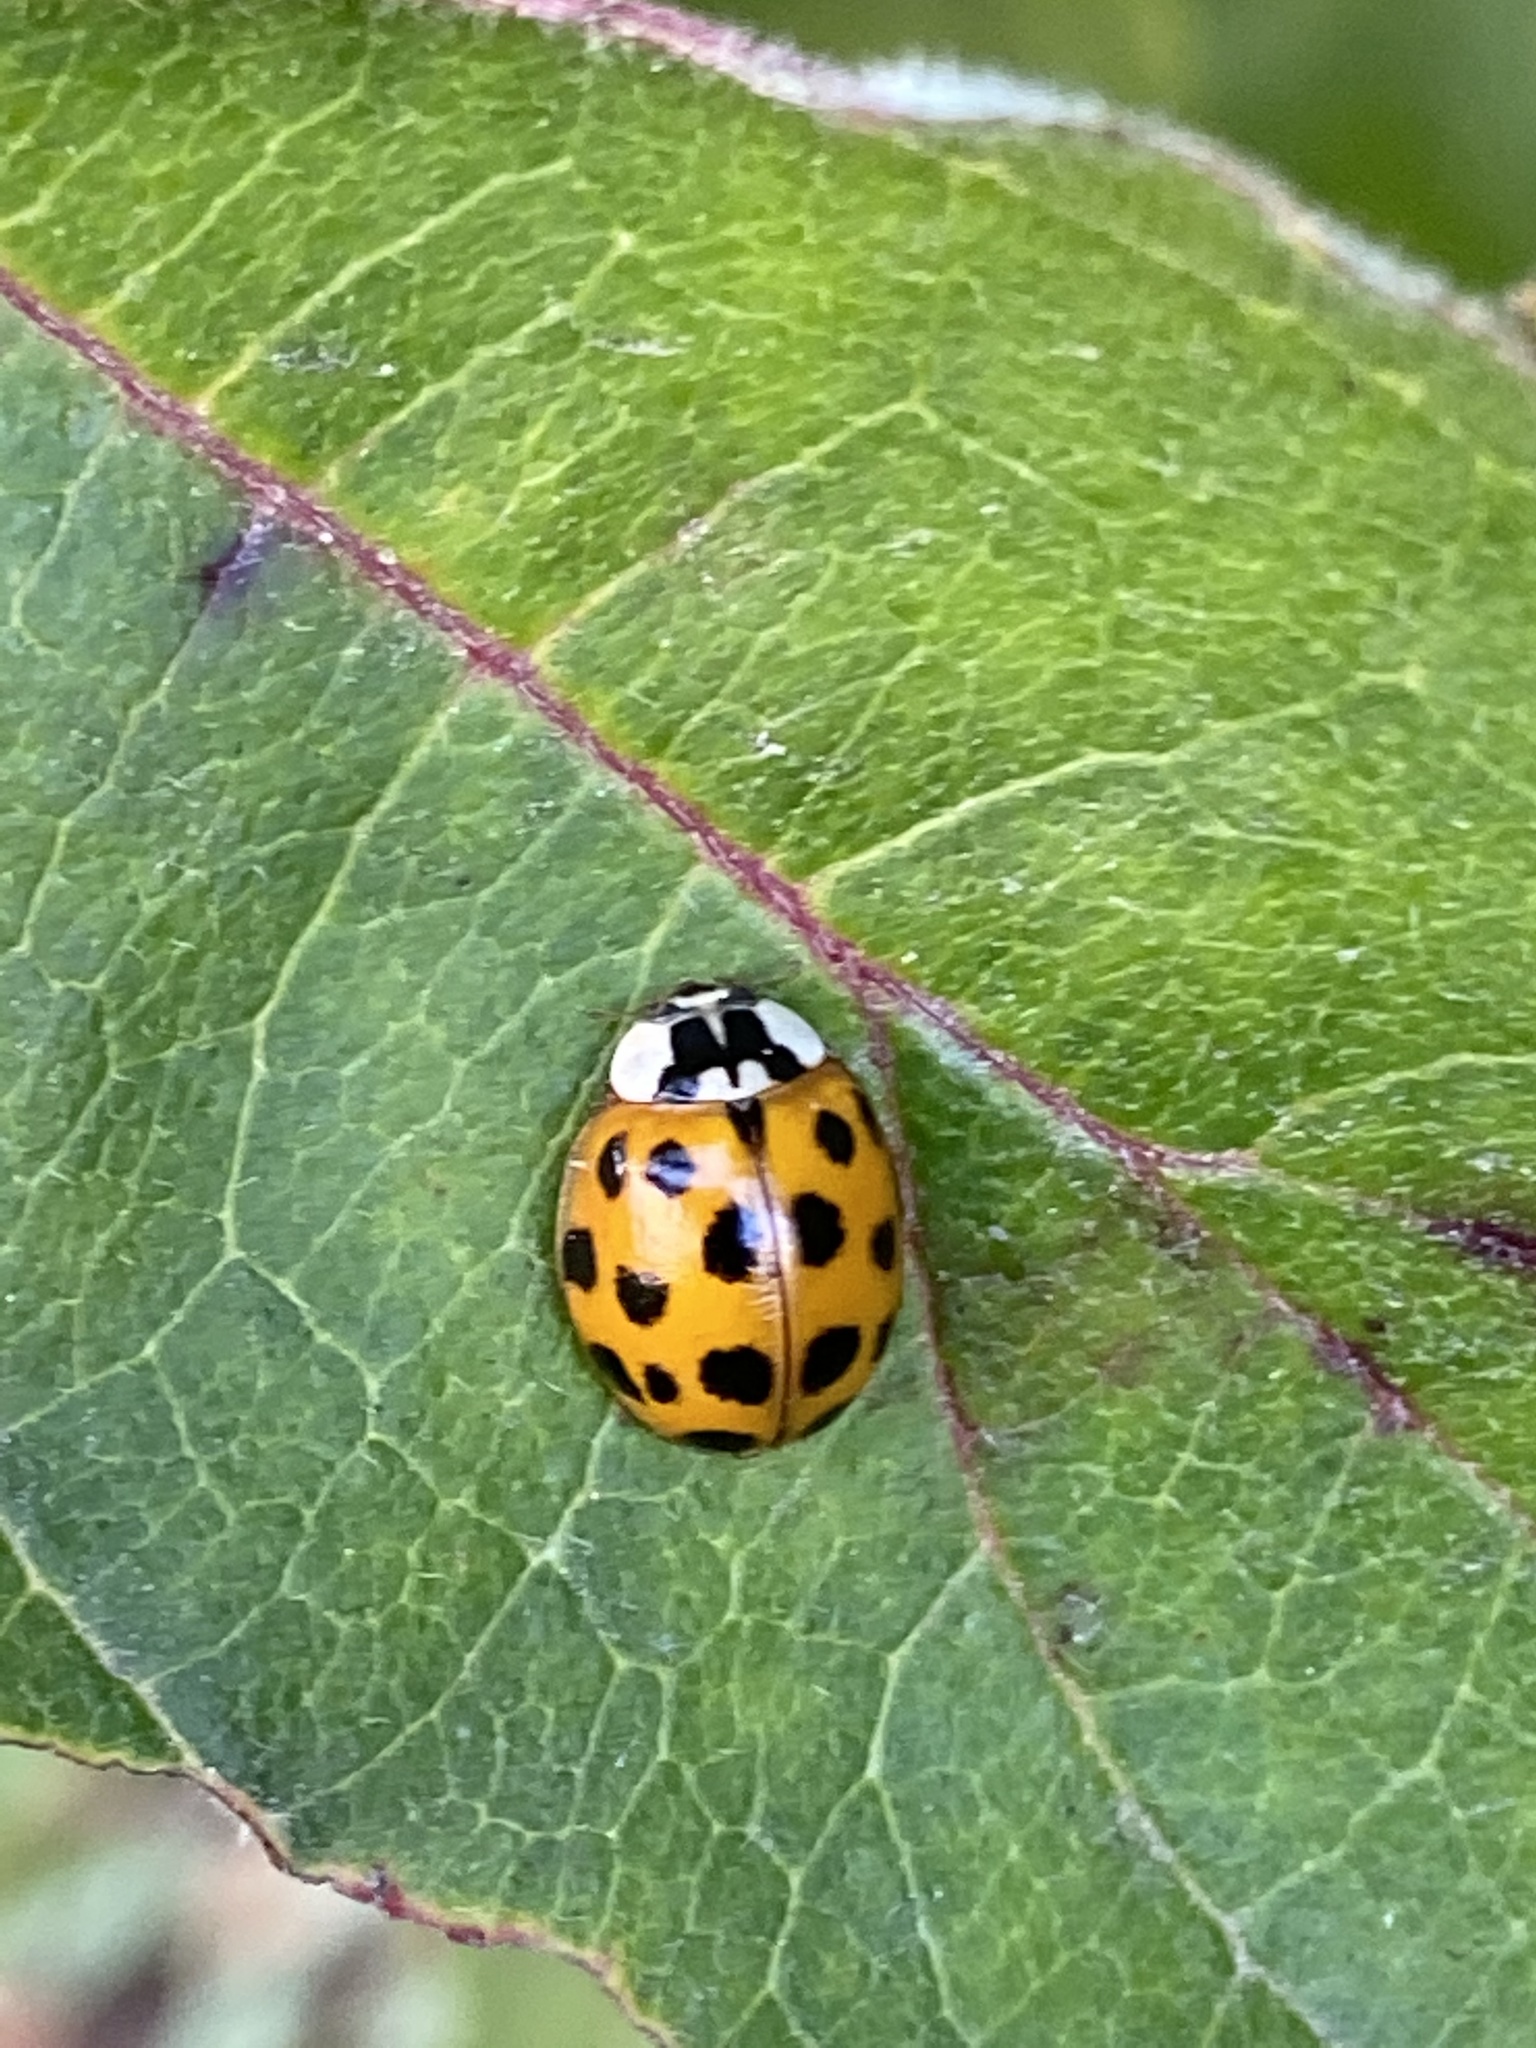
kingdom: Animalia
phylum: Arthropoda
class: Insecta
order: Coleoptera
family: Coccinellidae
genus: Harmonia
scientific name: Harmonia axyridis
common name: Harlequin ladybird
